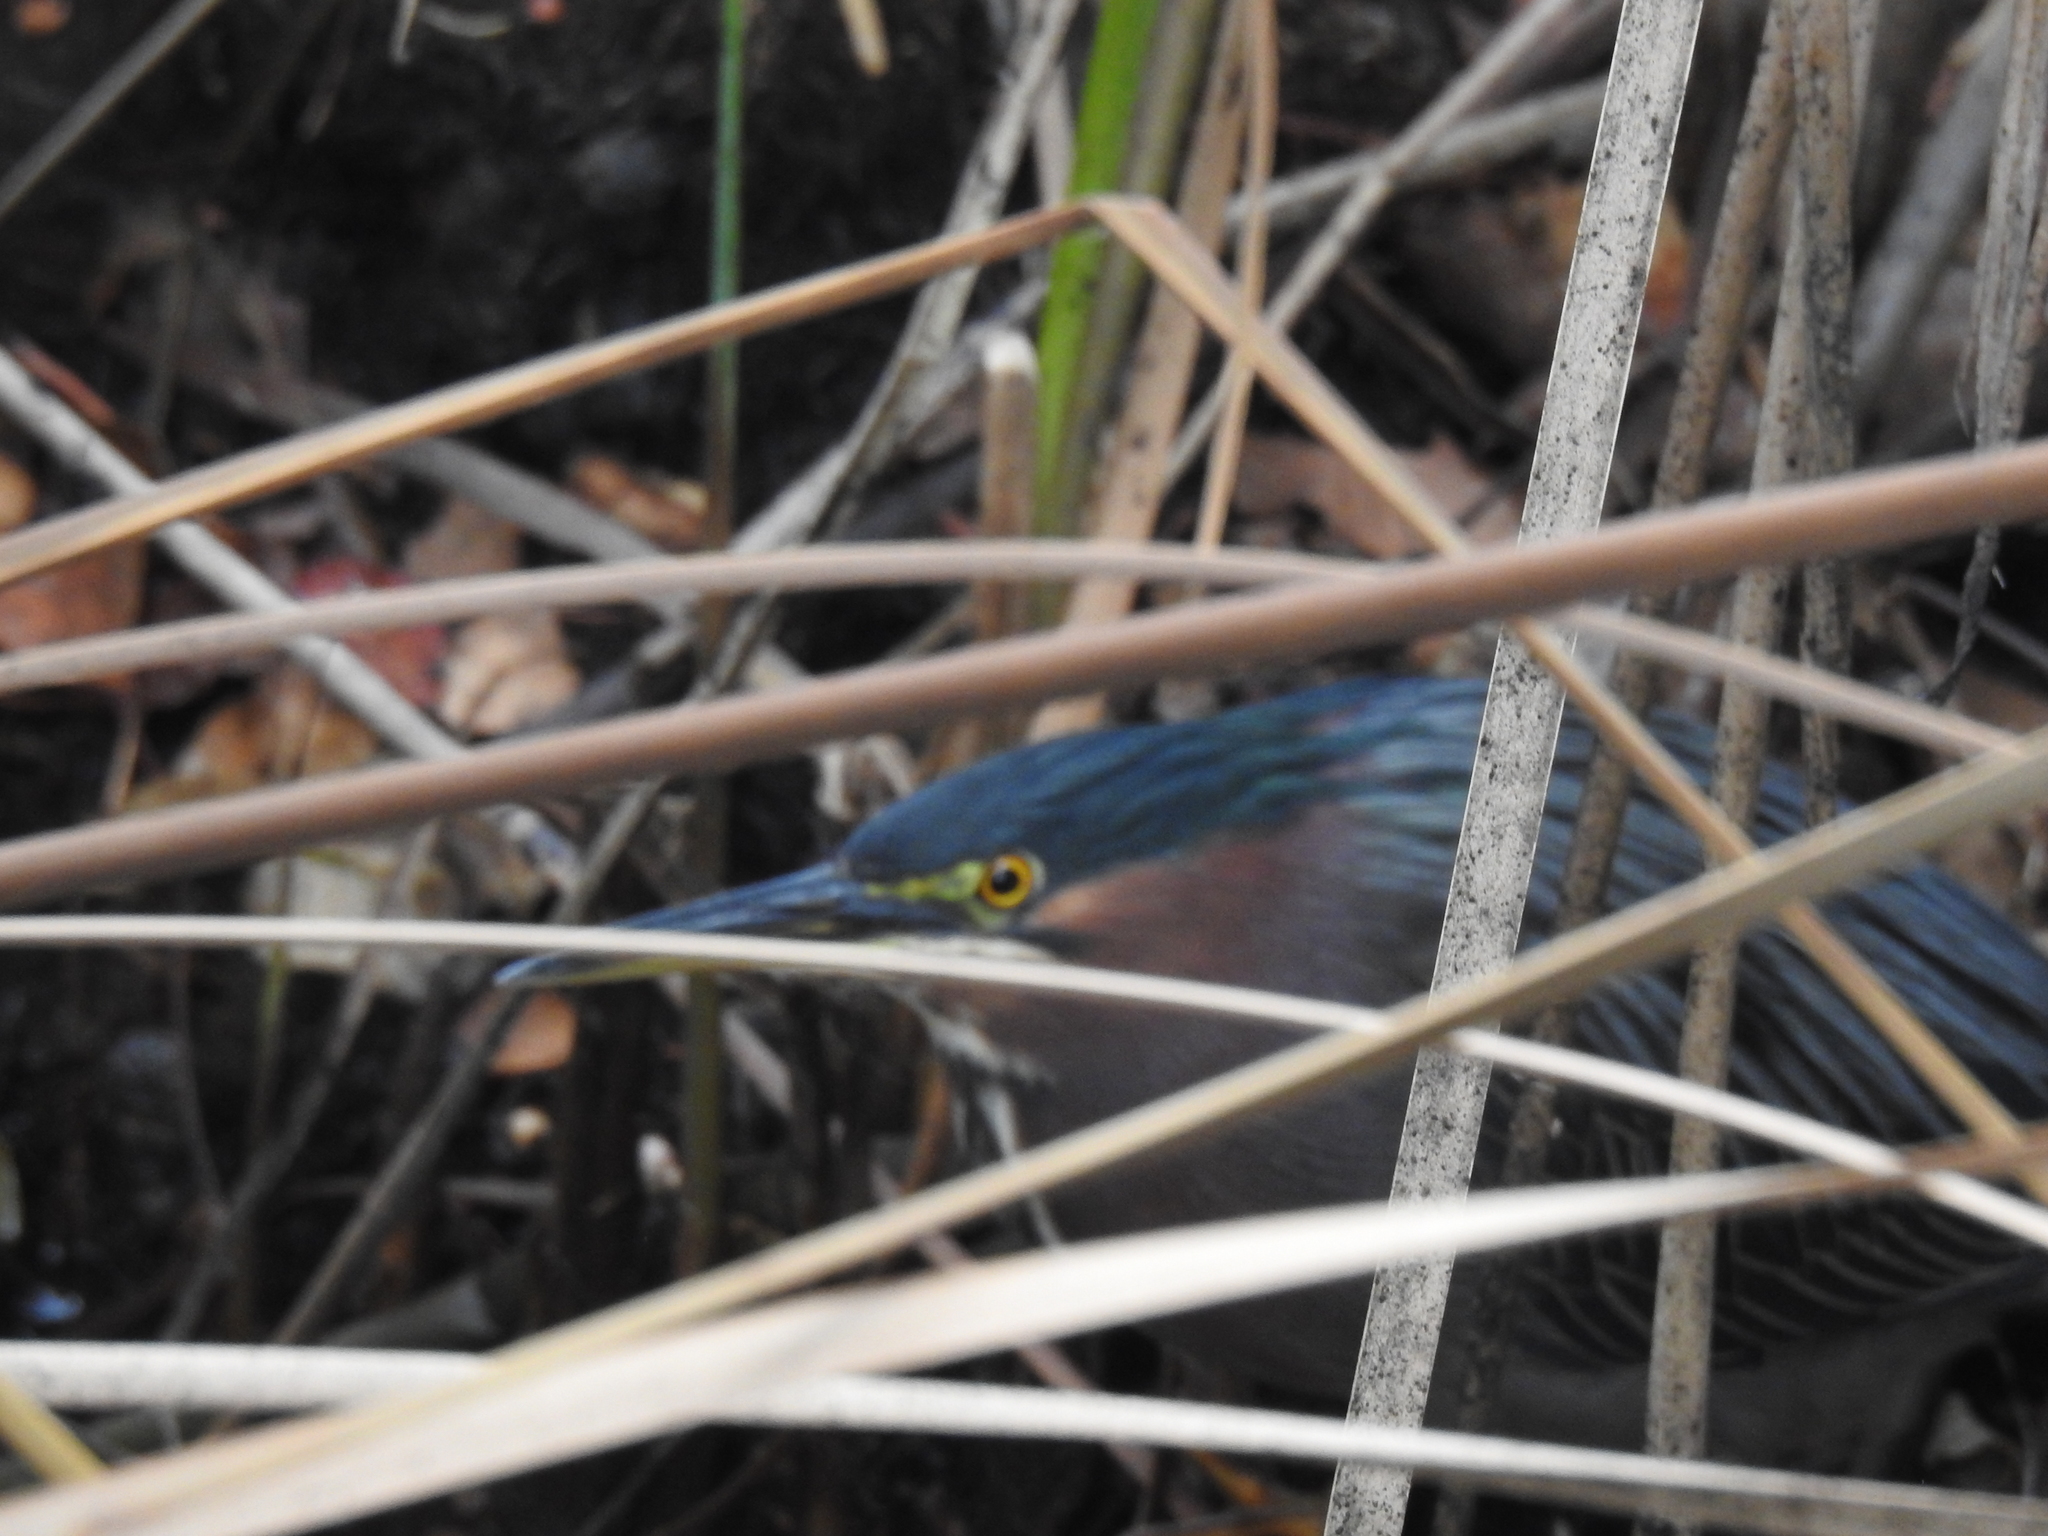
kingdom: Animalia
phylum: Chordata
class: Aves
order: Pelecaniformes
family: Ardeidae
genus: Butorides
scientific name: Butorides virescens
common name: Green heron
